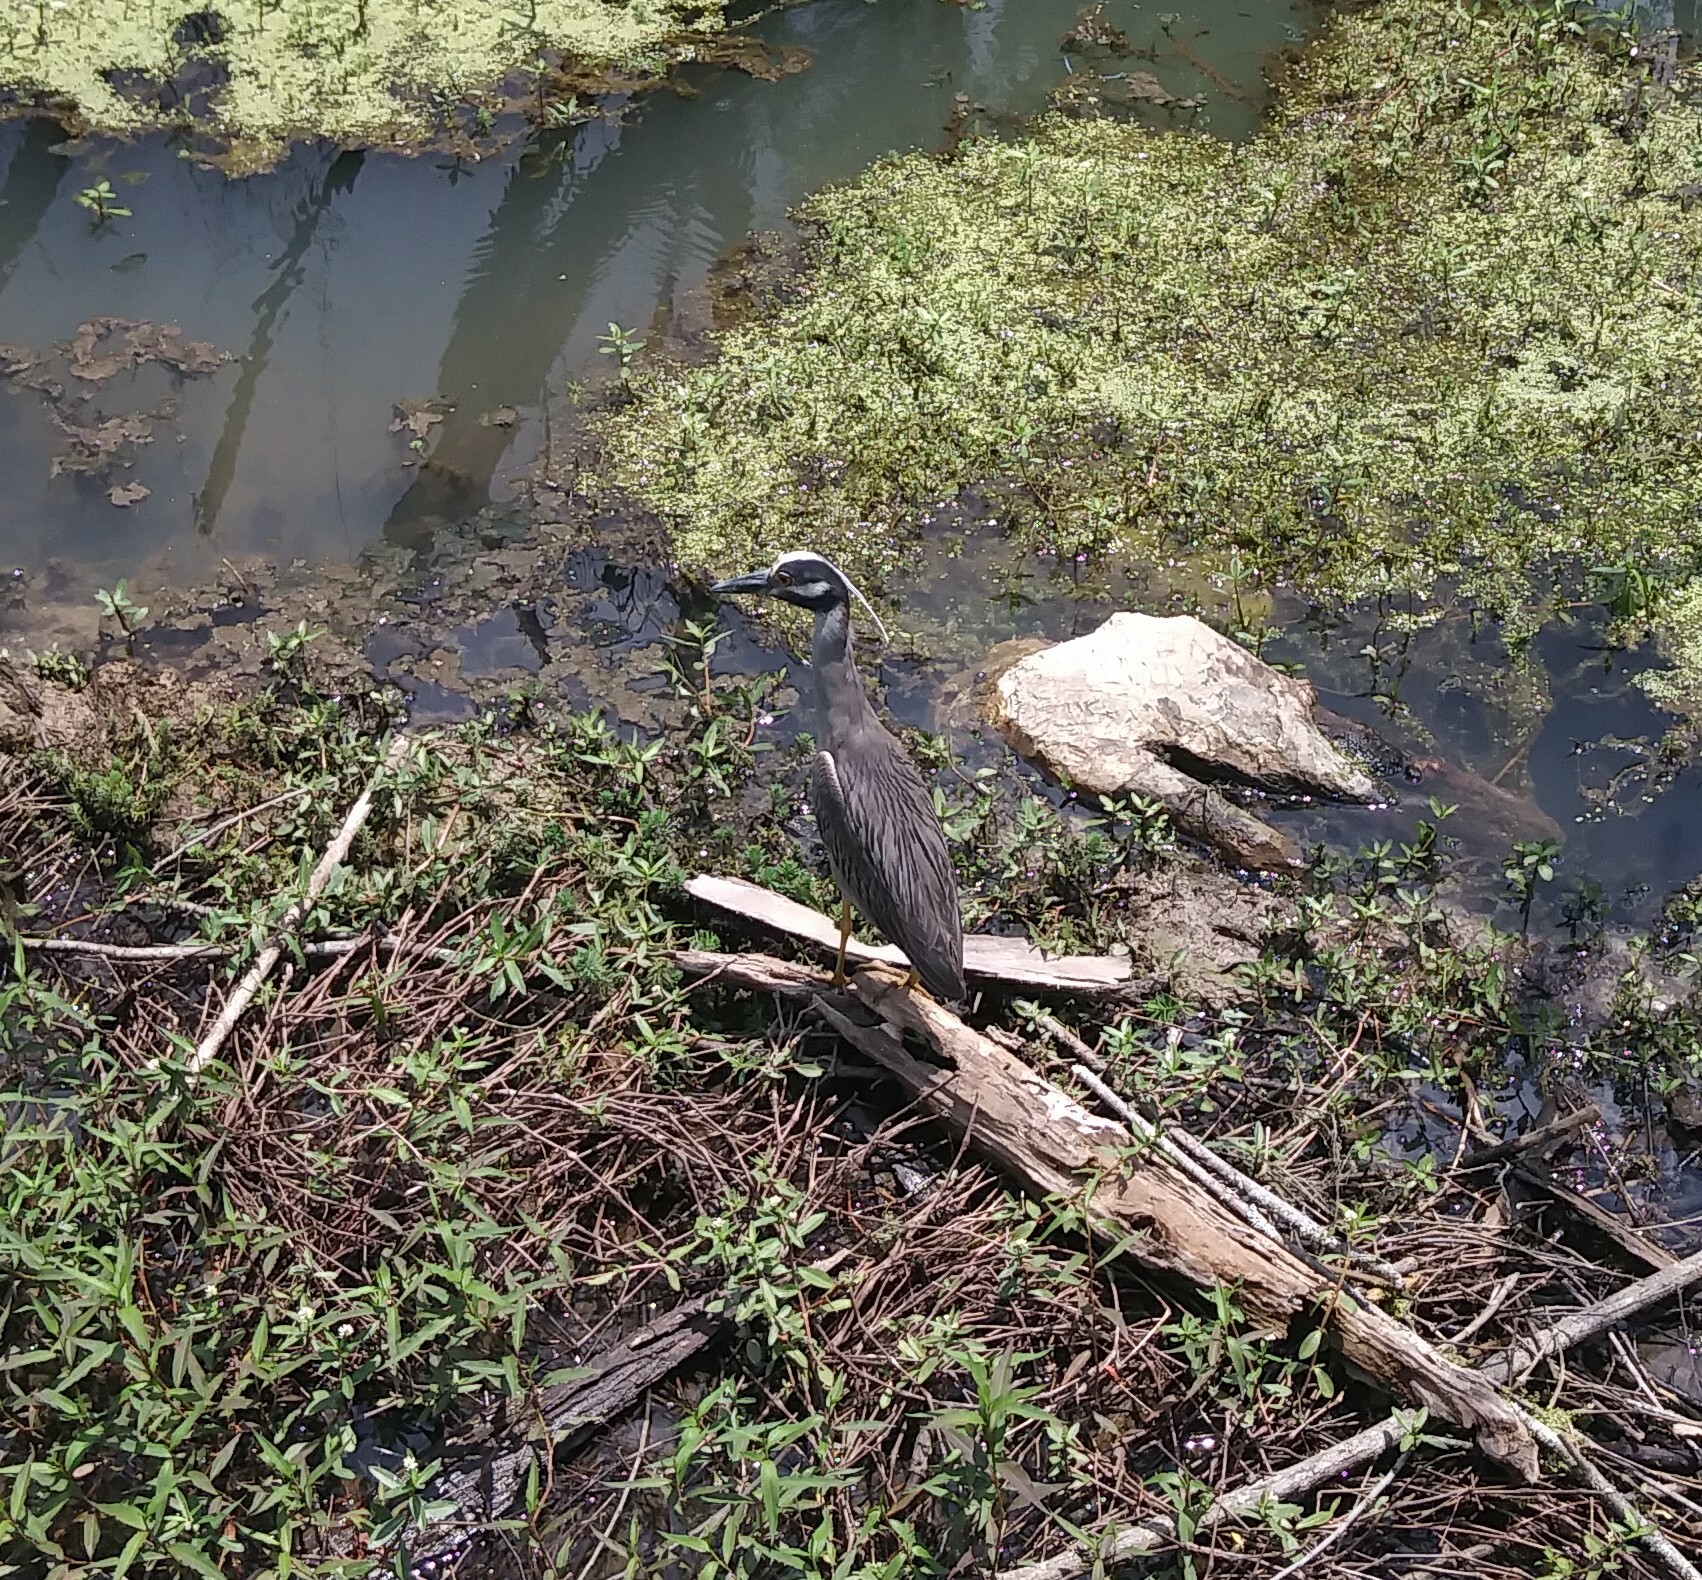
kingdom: Animalia
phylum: Chordata
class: Aves
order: Pelecaniformes
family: Ardeidae
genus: Nyctanassa
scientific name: Nyctanassa violacea
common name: Yellow-crowned night heron
